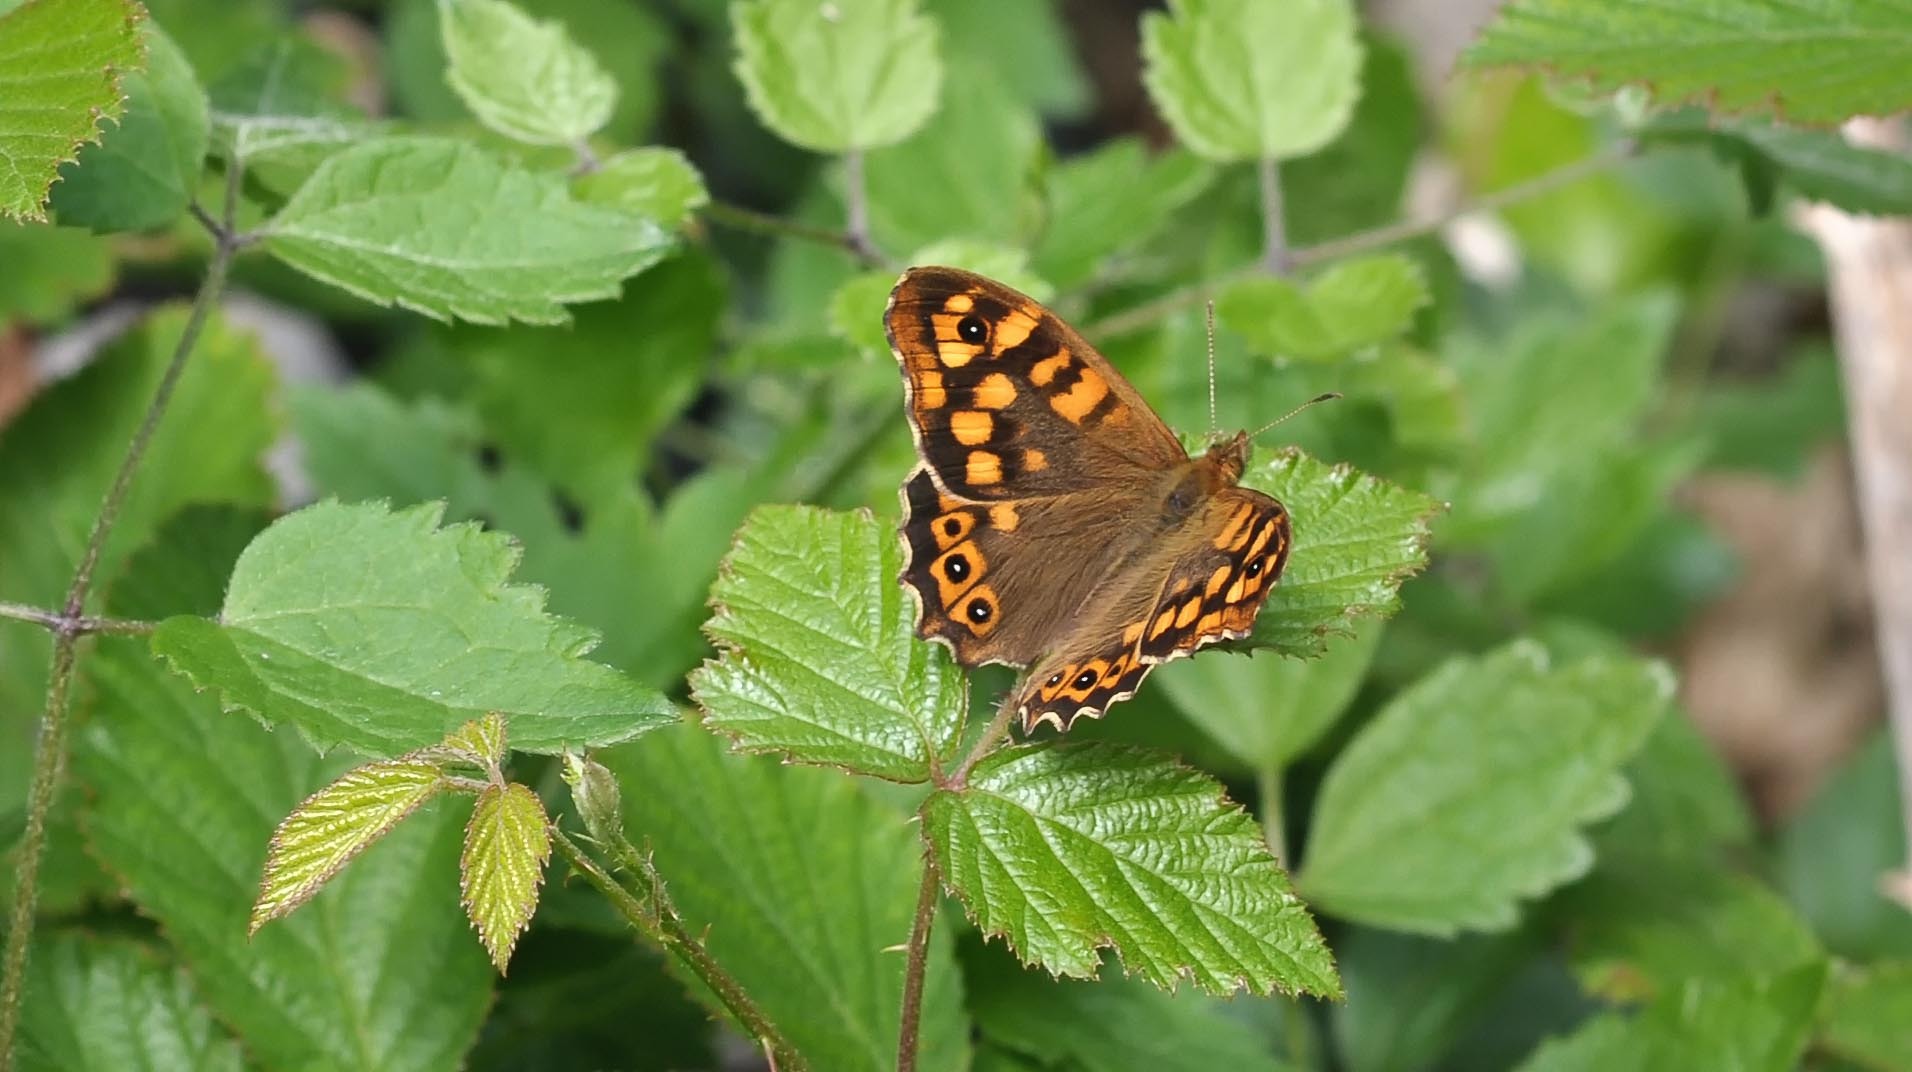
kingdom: Animalia
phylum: Arthropoda
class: Insecta
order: Lepidoptera
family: Nymphalidae
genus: Pararge
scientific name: Pararge aegeria
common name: Speckled wood
